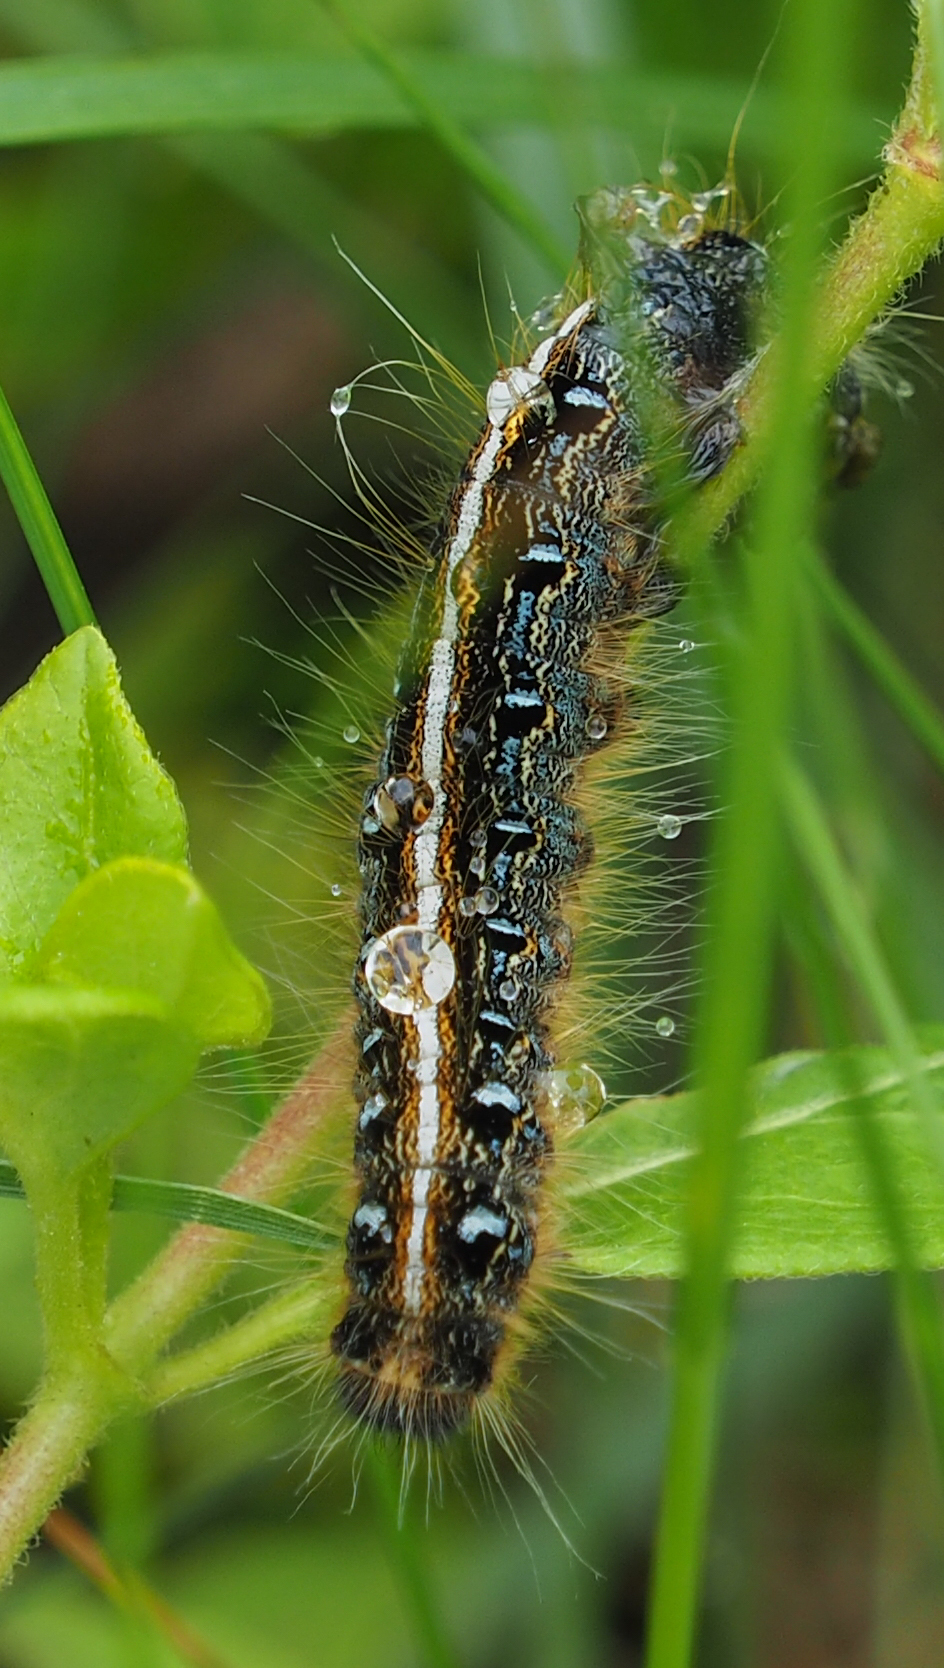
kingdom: Animalia
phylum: Arthropoda
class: Insecta
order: Lepidoptera
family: Lasiocampidae
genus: Malacosoma
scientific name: Malacosoma americana
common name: Eastern tent caterpillar moth
